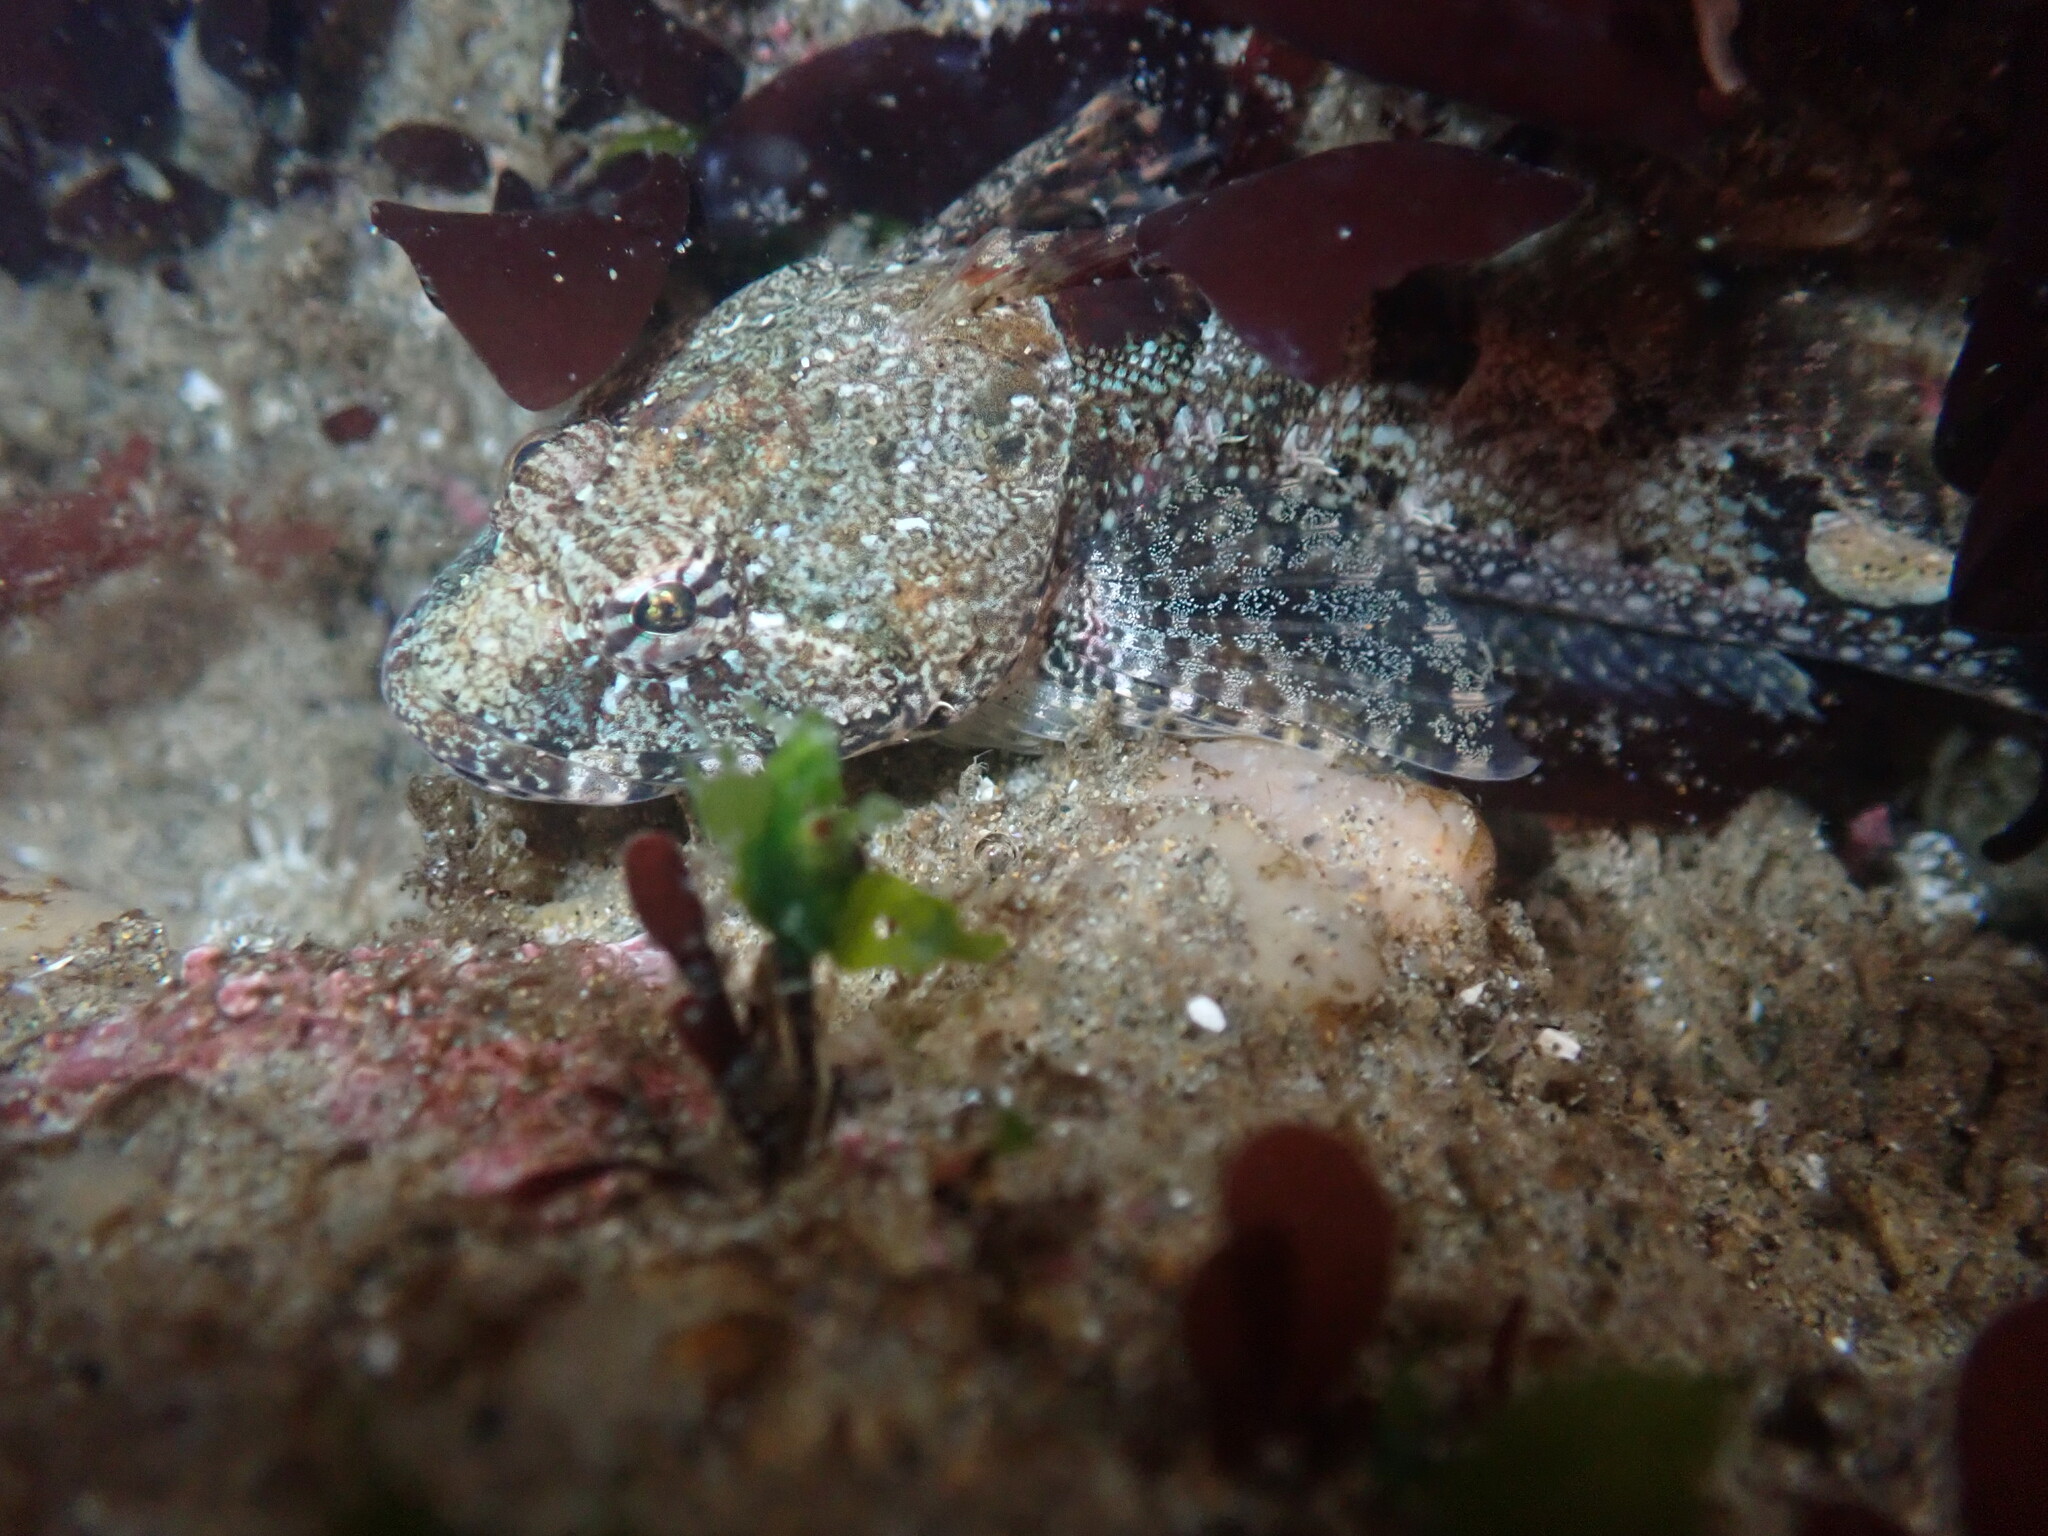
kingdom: Animalia
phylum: Chordata
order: Scorpaeniformes
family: Cottidae
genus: Artedius
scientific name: Artedius lateralis
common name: Smooth-head sculpin
